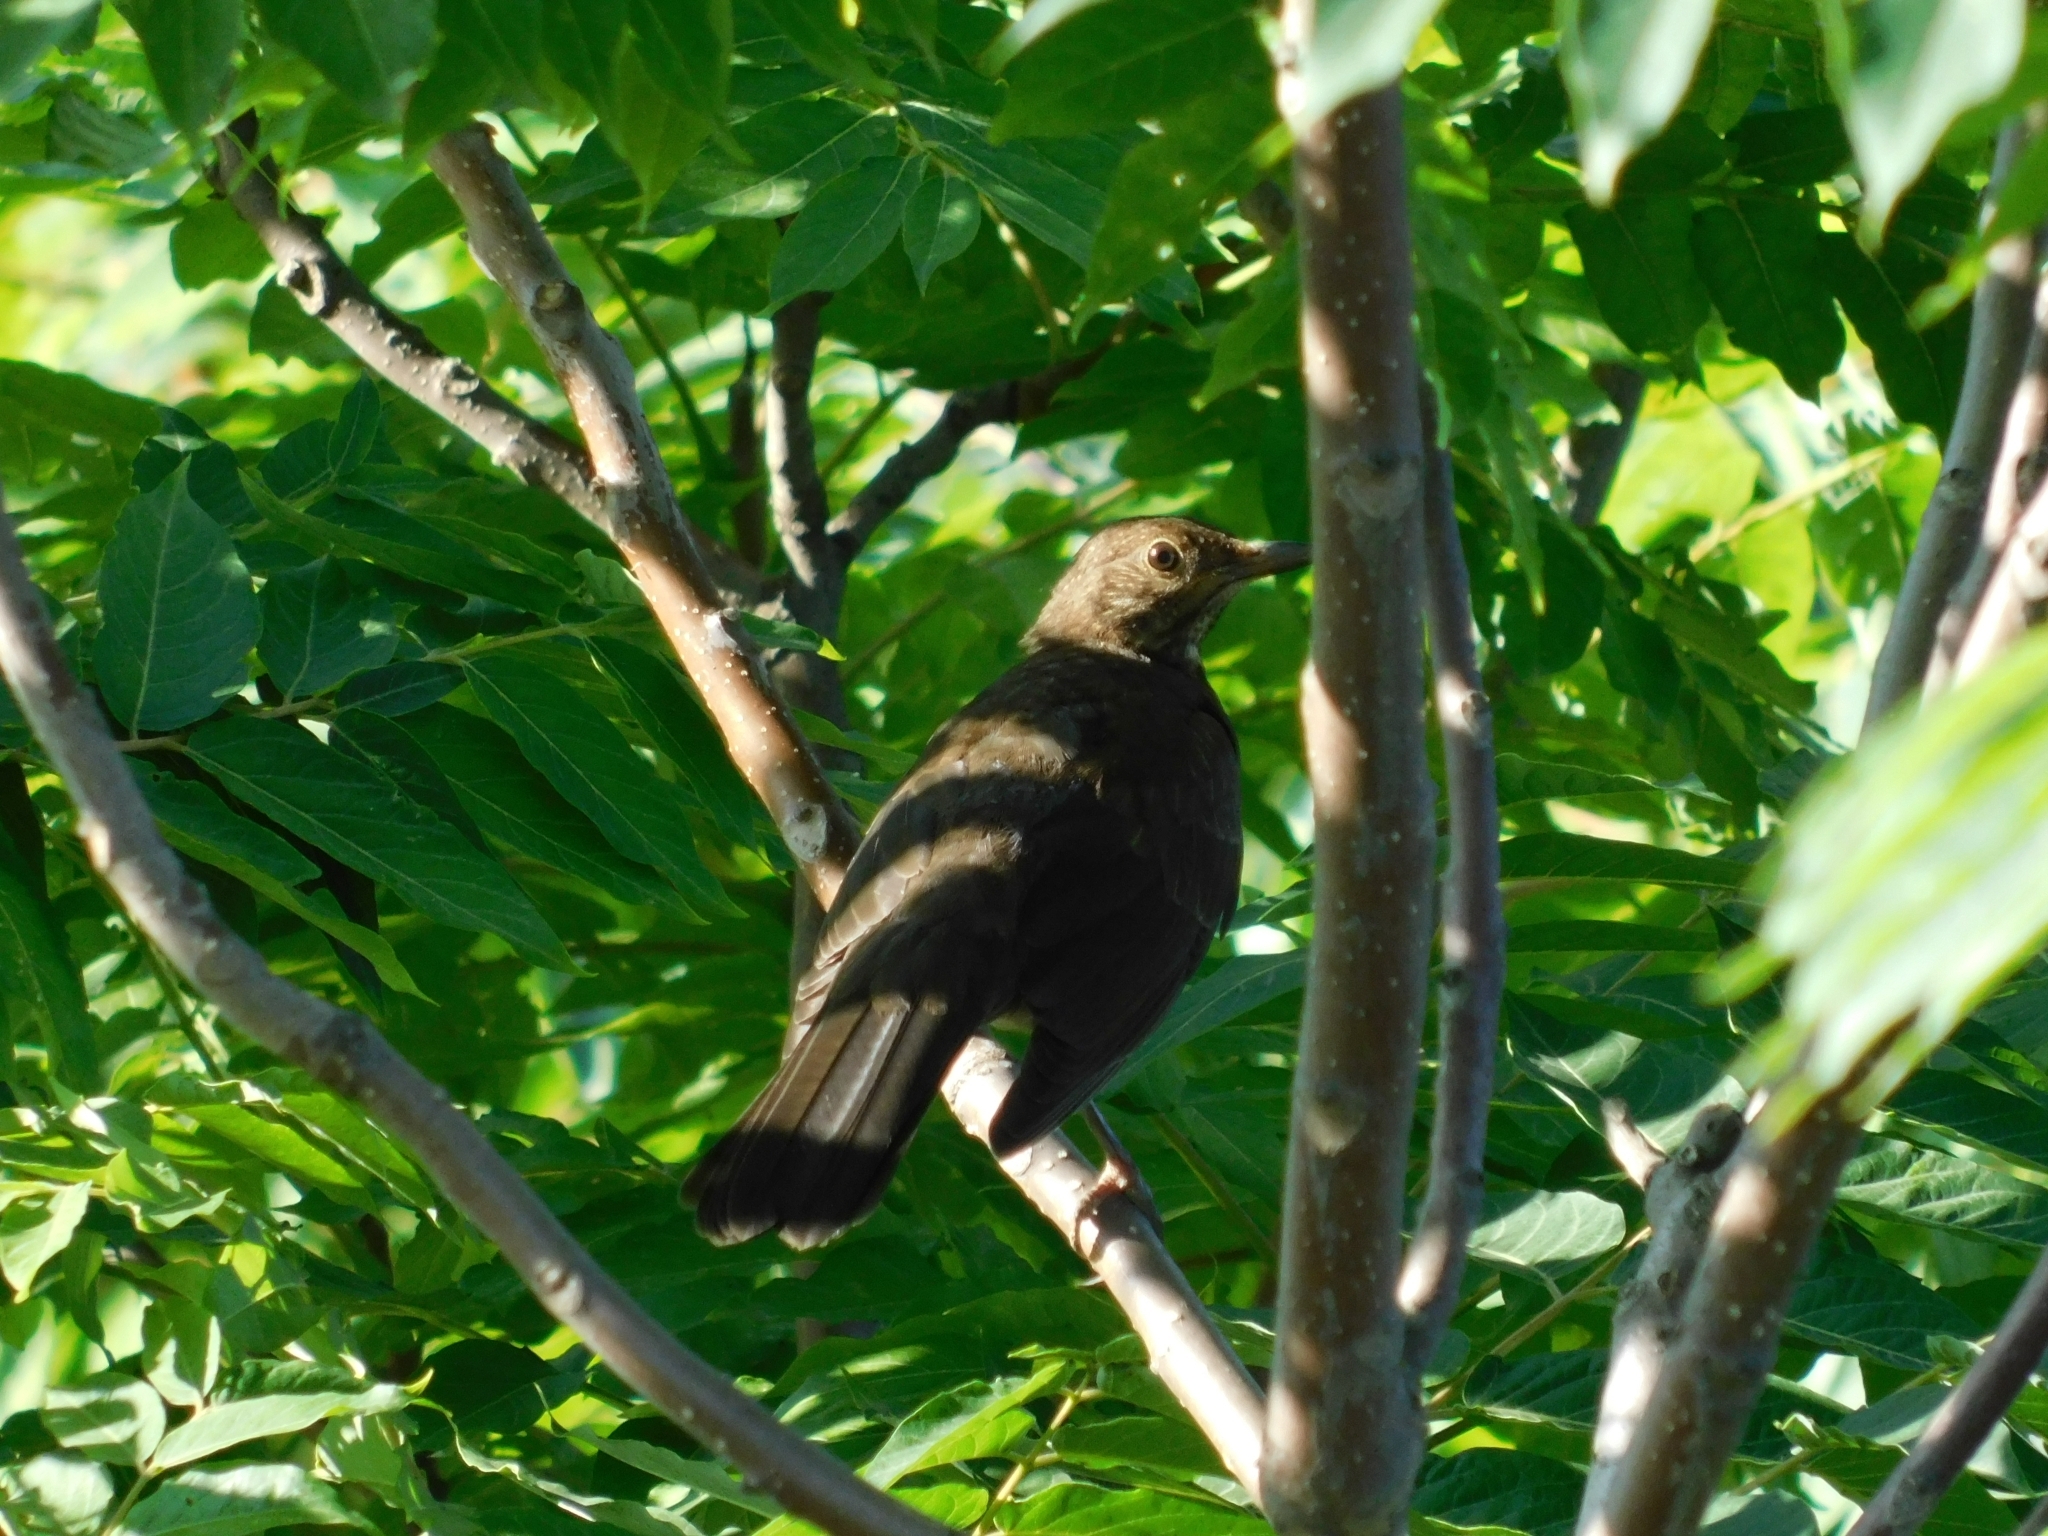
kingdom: Animalia
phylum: Chordata
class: Aves
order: Passeriformes
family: Turdidae
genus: Turdus
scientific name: Turdus merula
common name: Common blackbird
